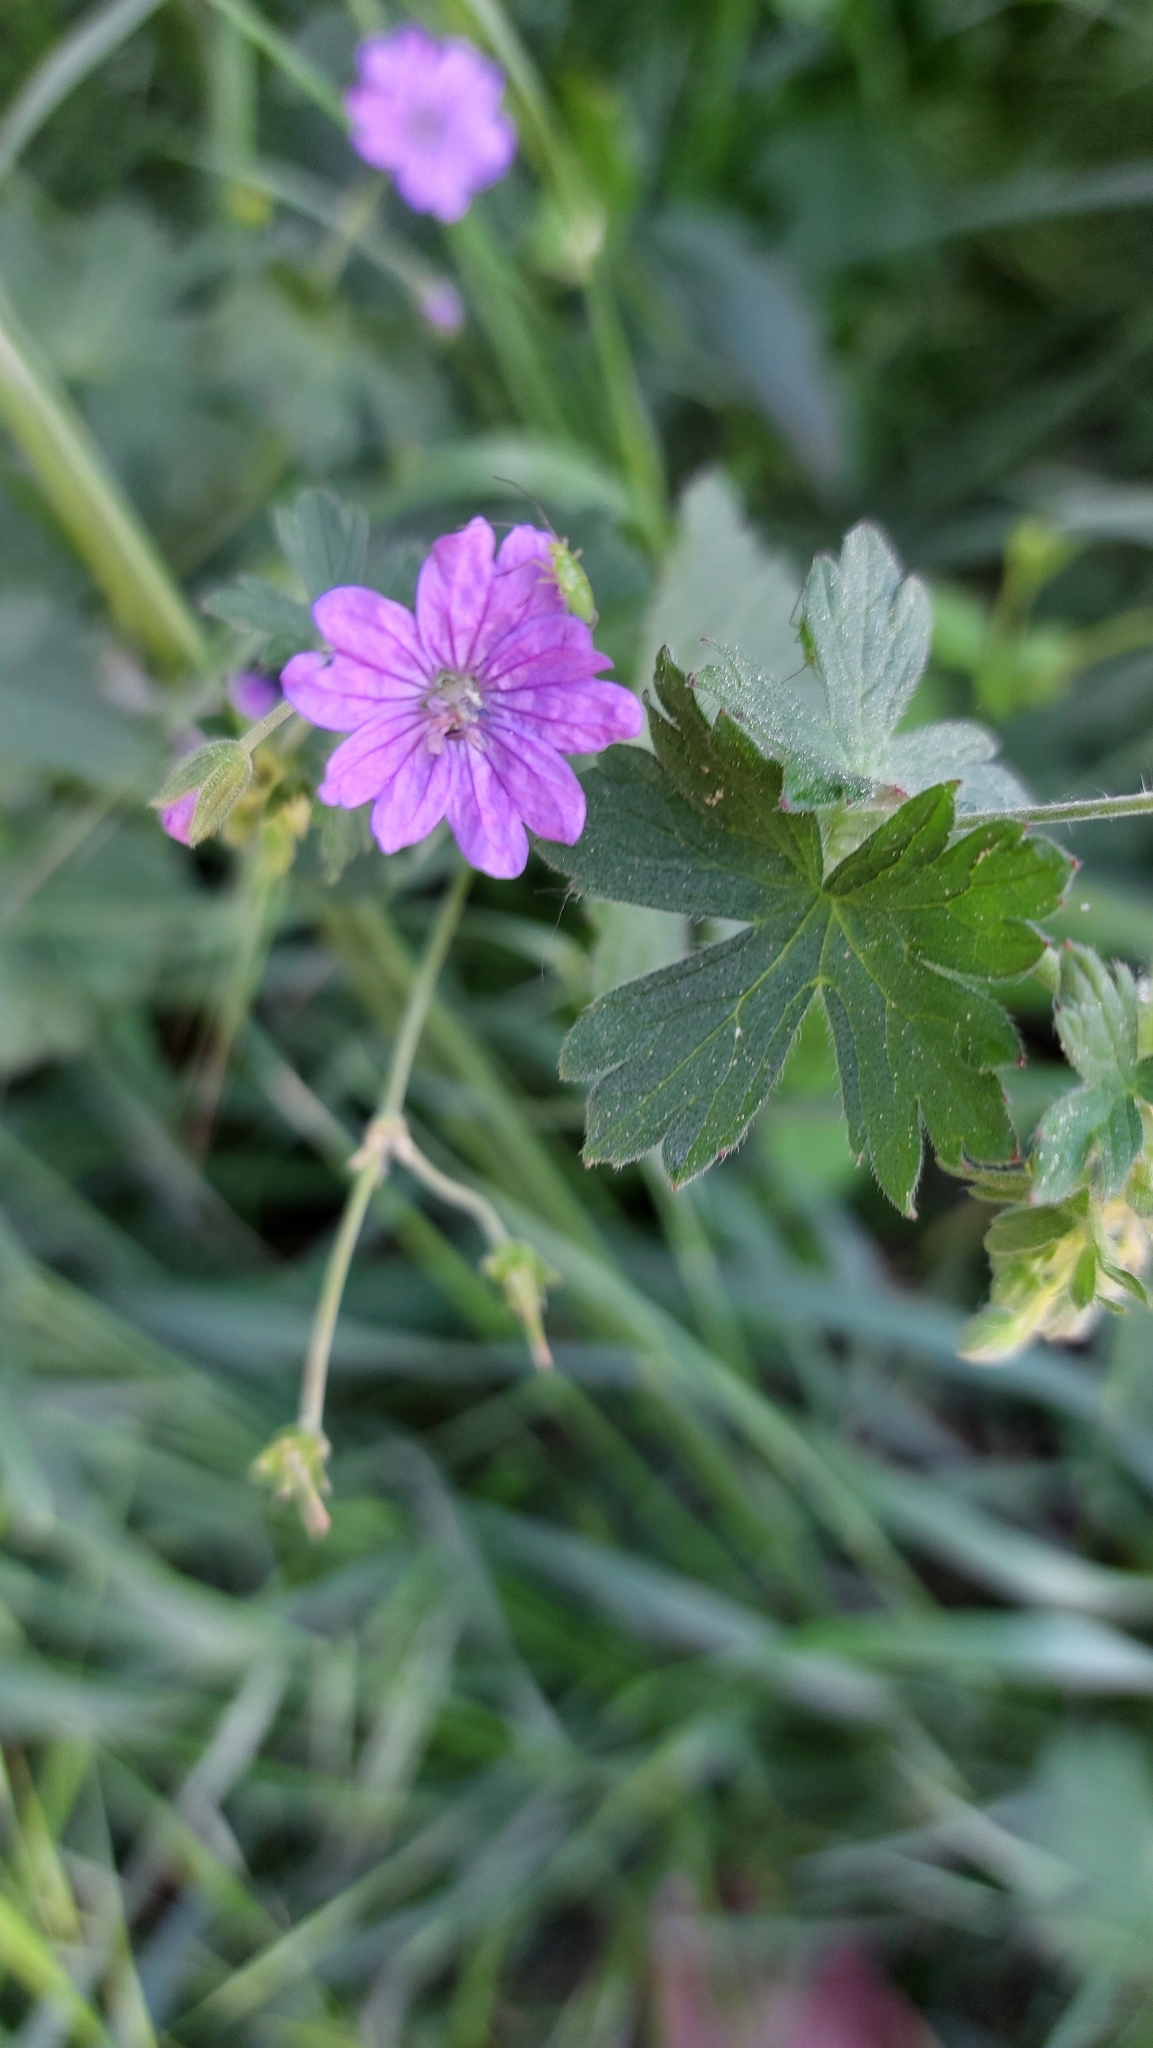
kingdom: Plantae
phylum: Tracheophyta
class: Magnoliopsida
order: Geraniales
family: Geraniaceae
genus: Geranium
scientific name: Geranium pyrenaicum
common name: Hedgerow crane's-bill
